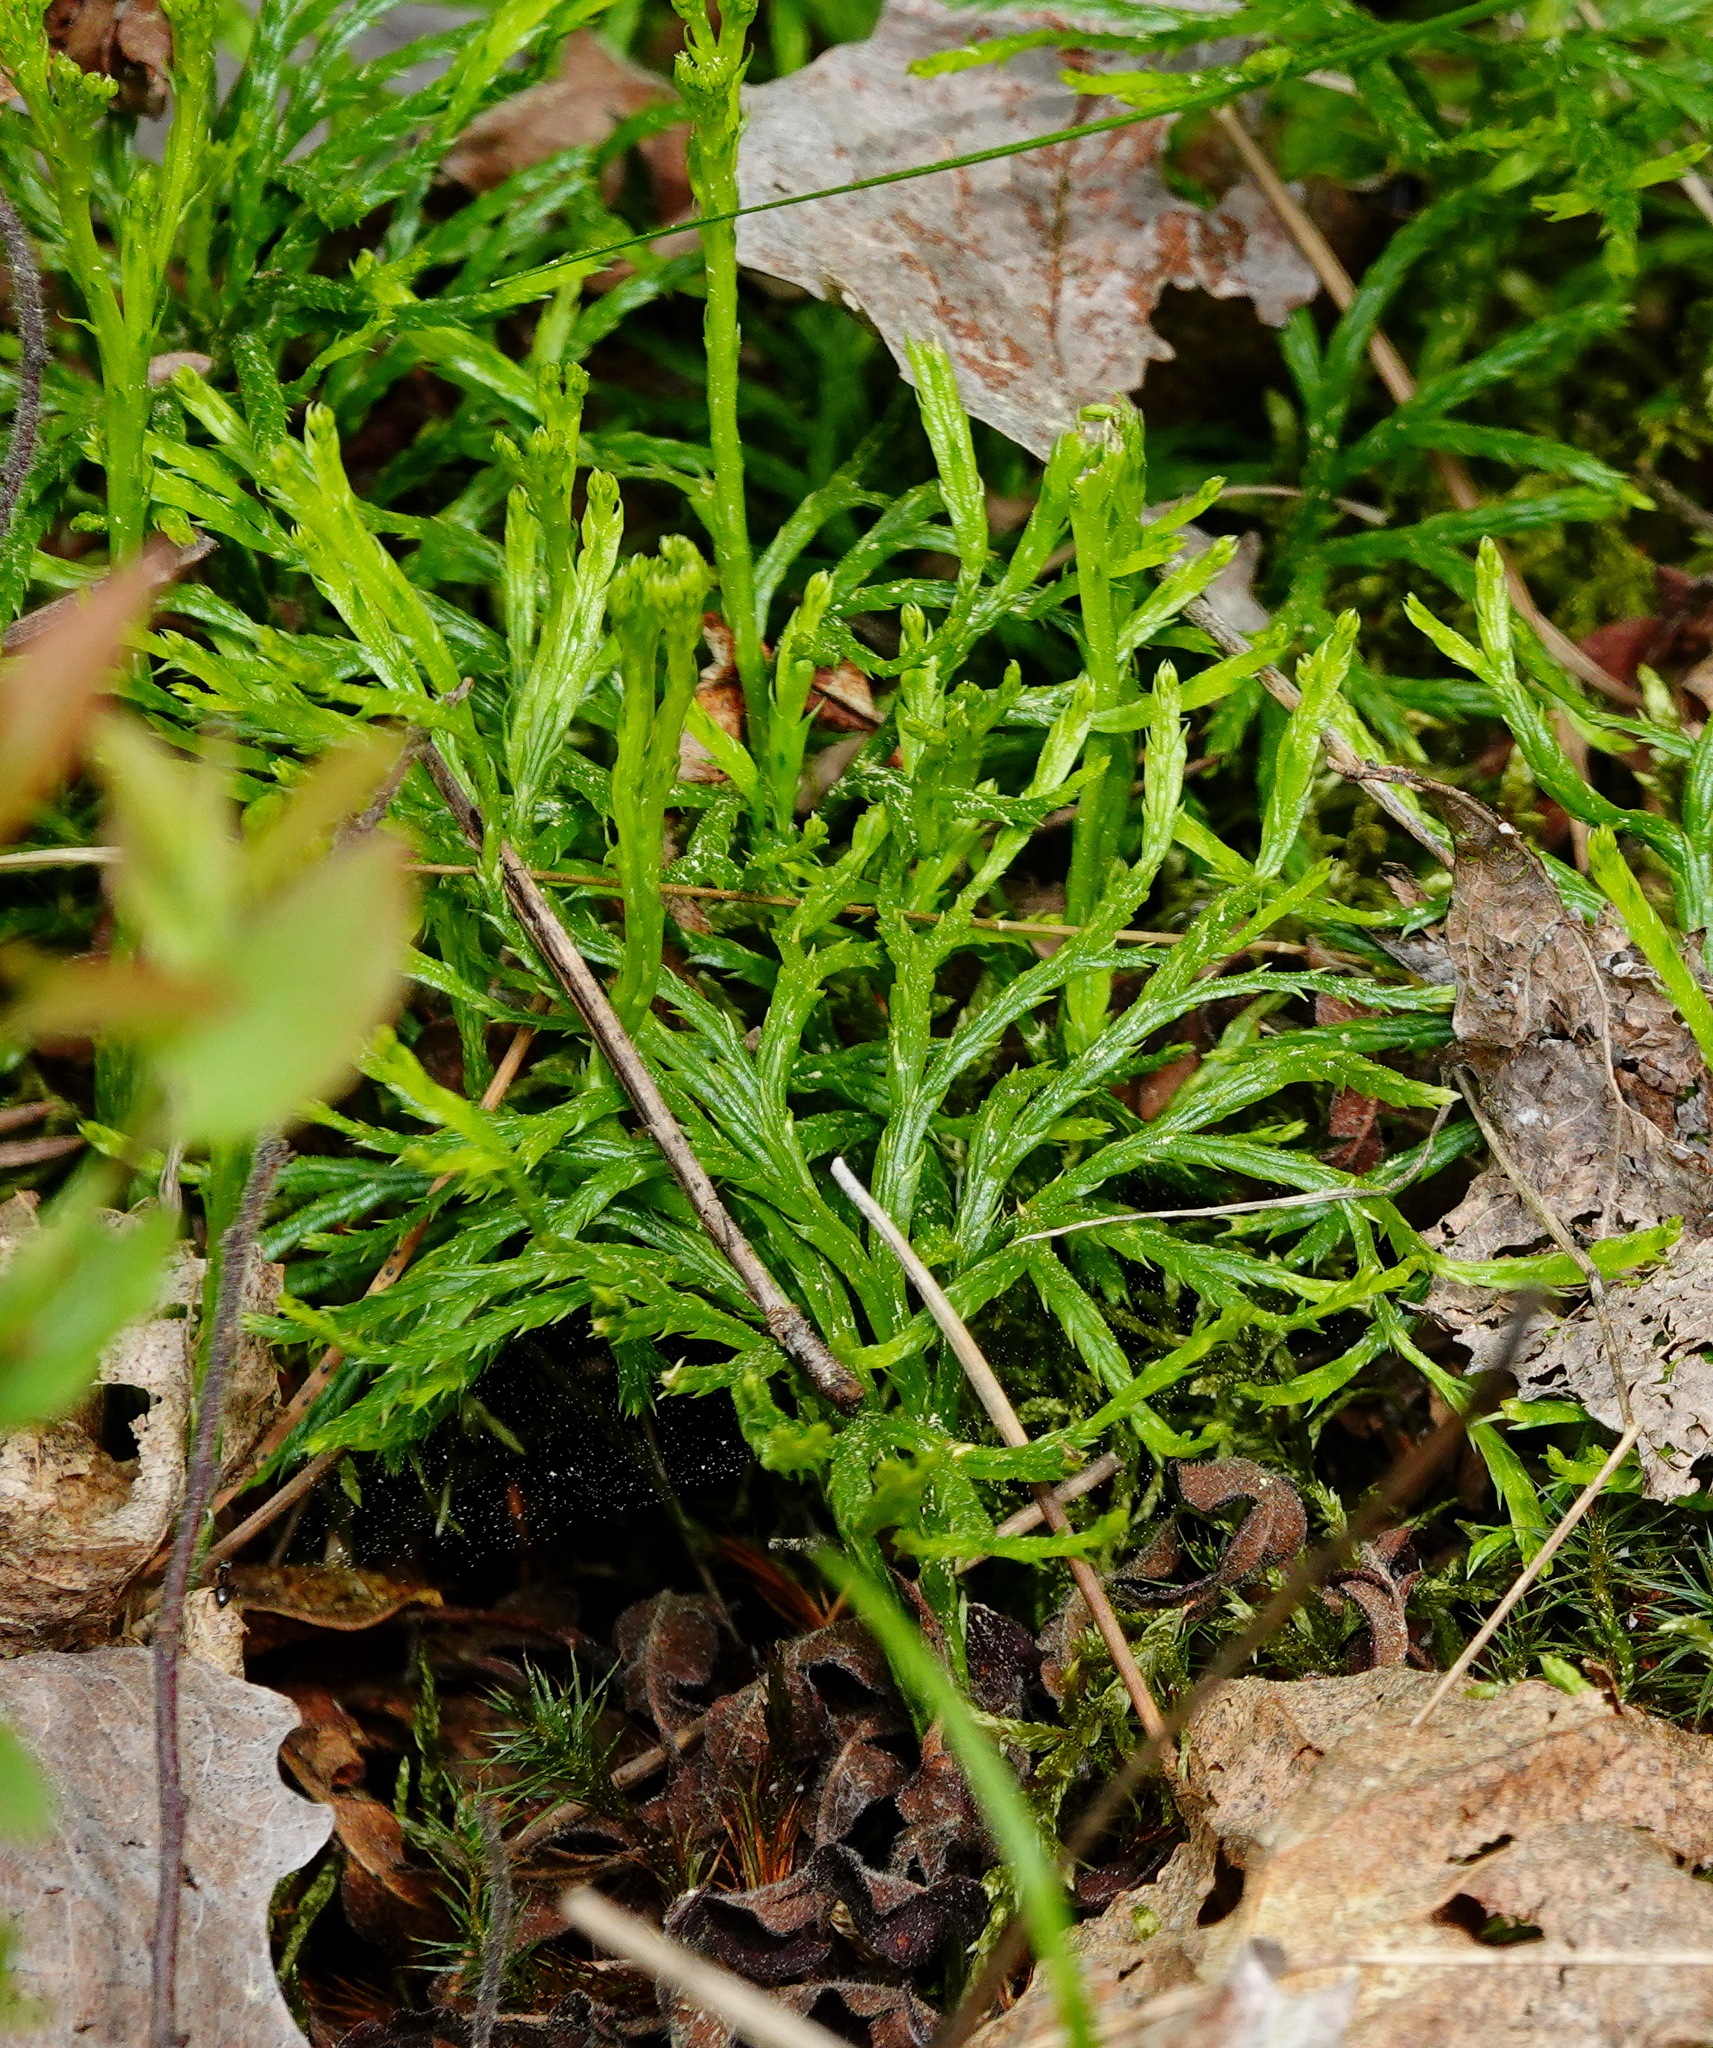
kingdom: Plantae
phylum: Tracheophyta
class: Lycopodiopsida
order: Lycopodiales
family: Lycopodiaceae
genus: Diphasiastrum
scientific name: Diphasiastrum complanatum
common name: Northern running-pine
